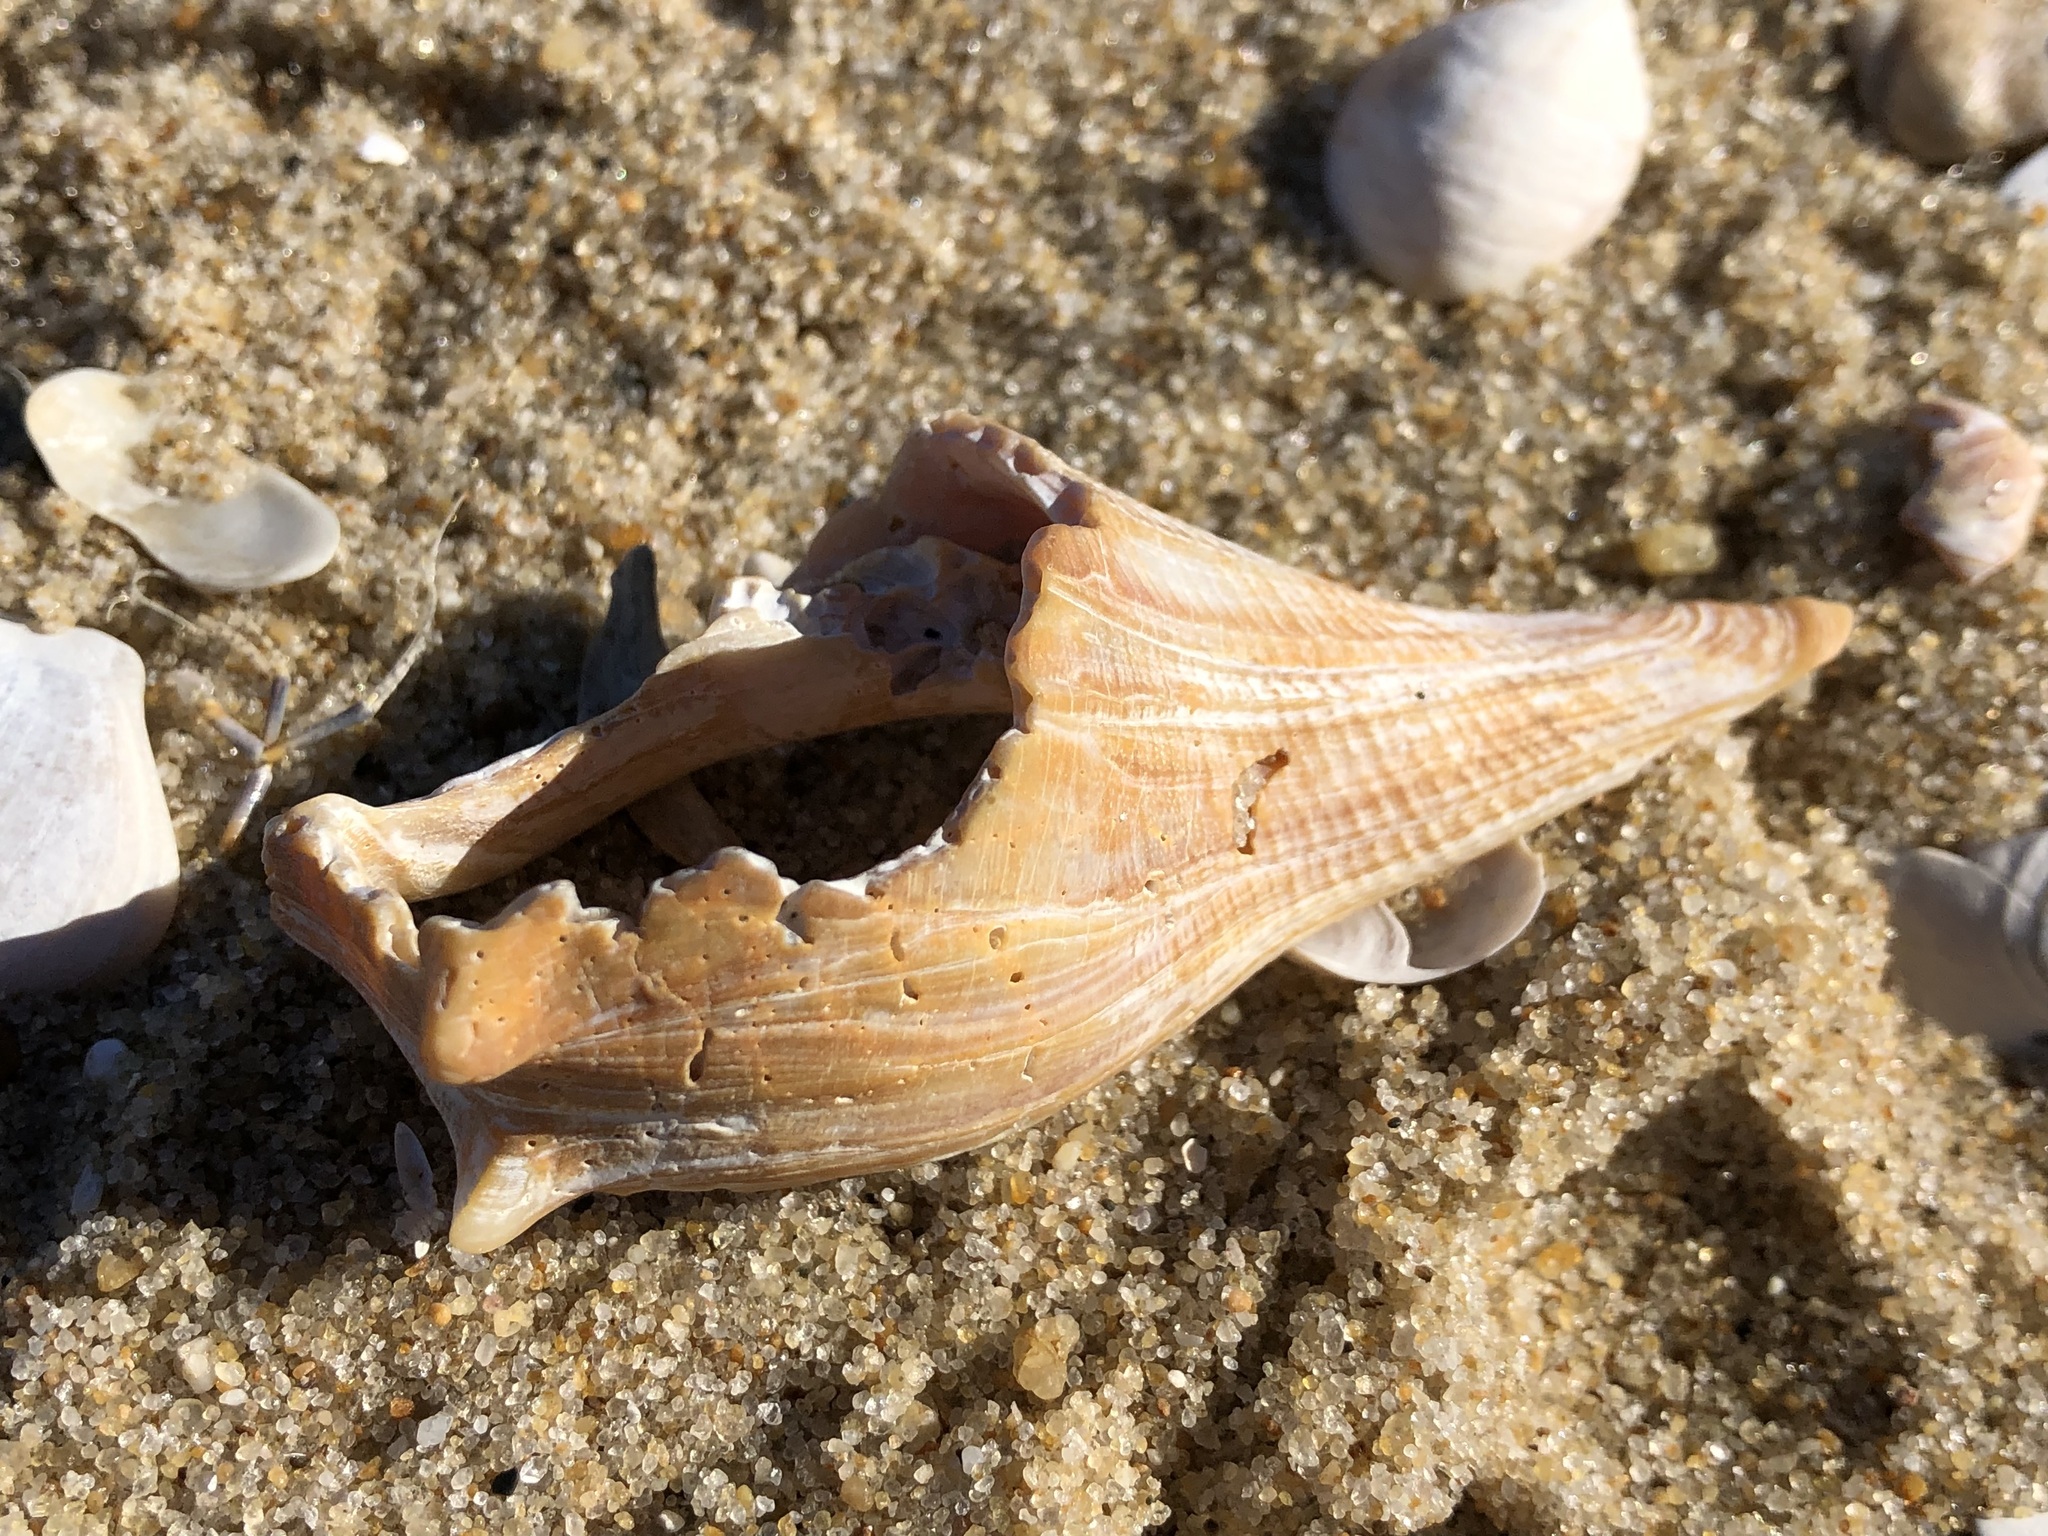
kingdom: Animalia
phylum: Mollusca
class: Gastropoda
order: Neogastropoda
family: Busyconidae
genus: Busycon
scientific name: Busycon carica
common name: Knobbed whelk
